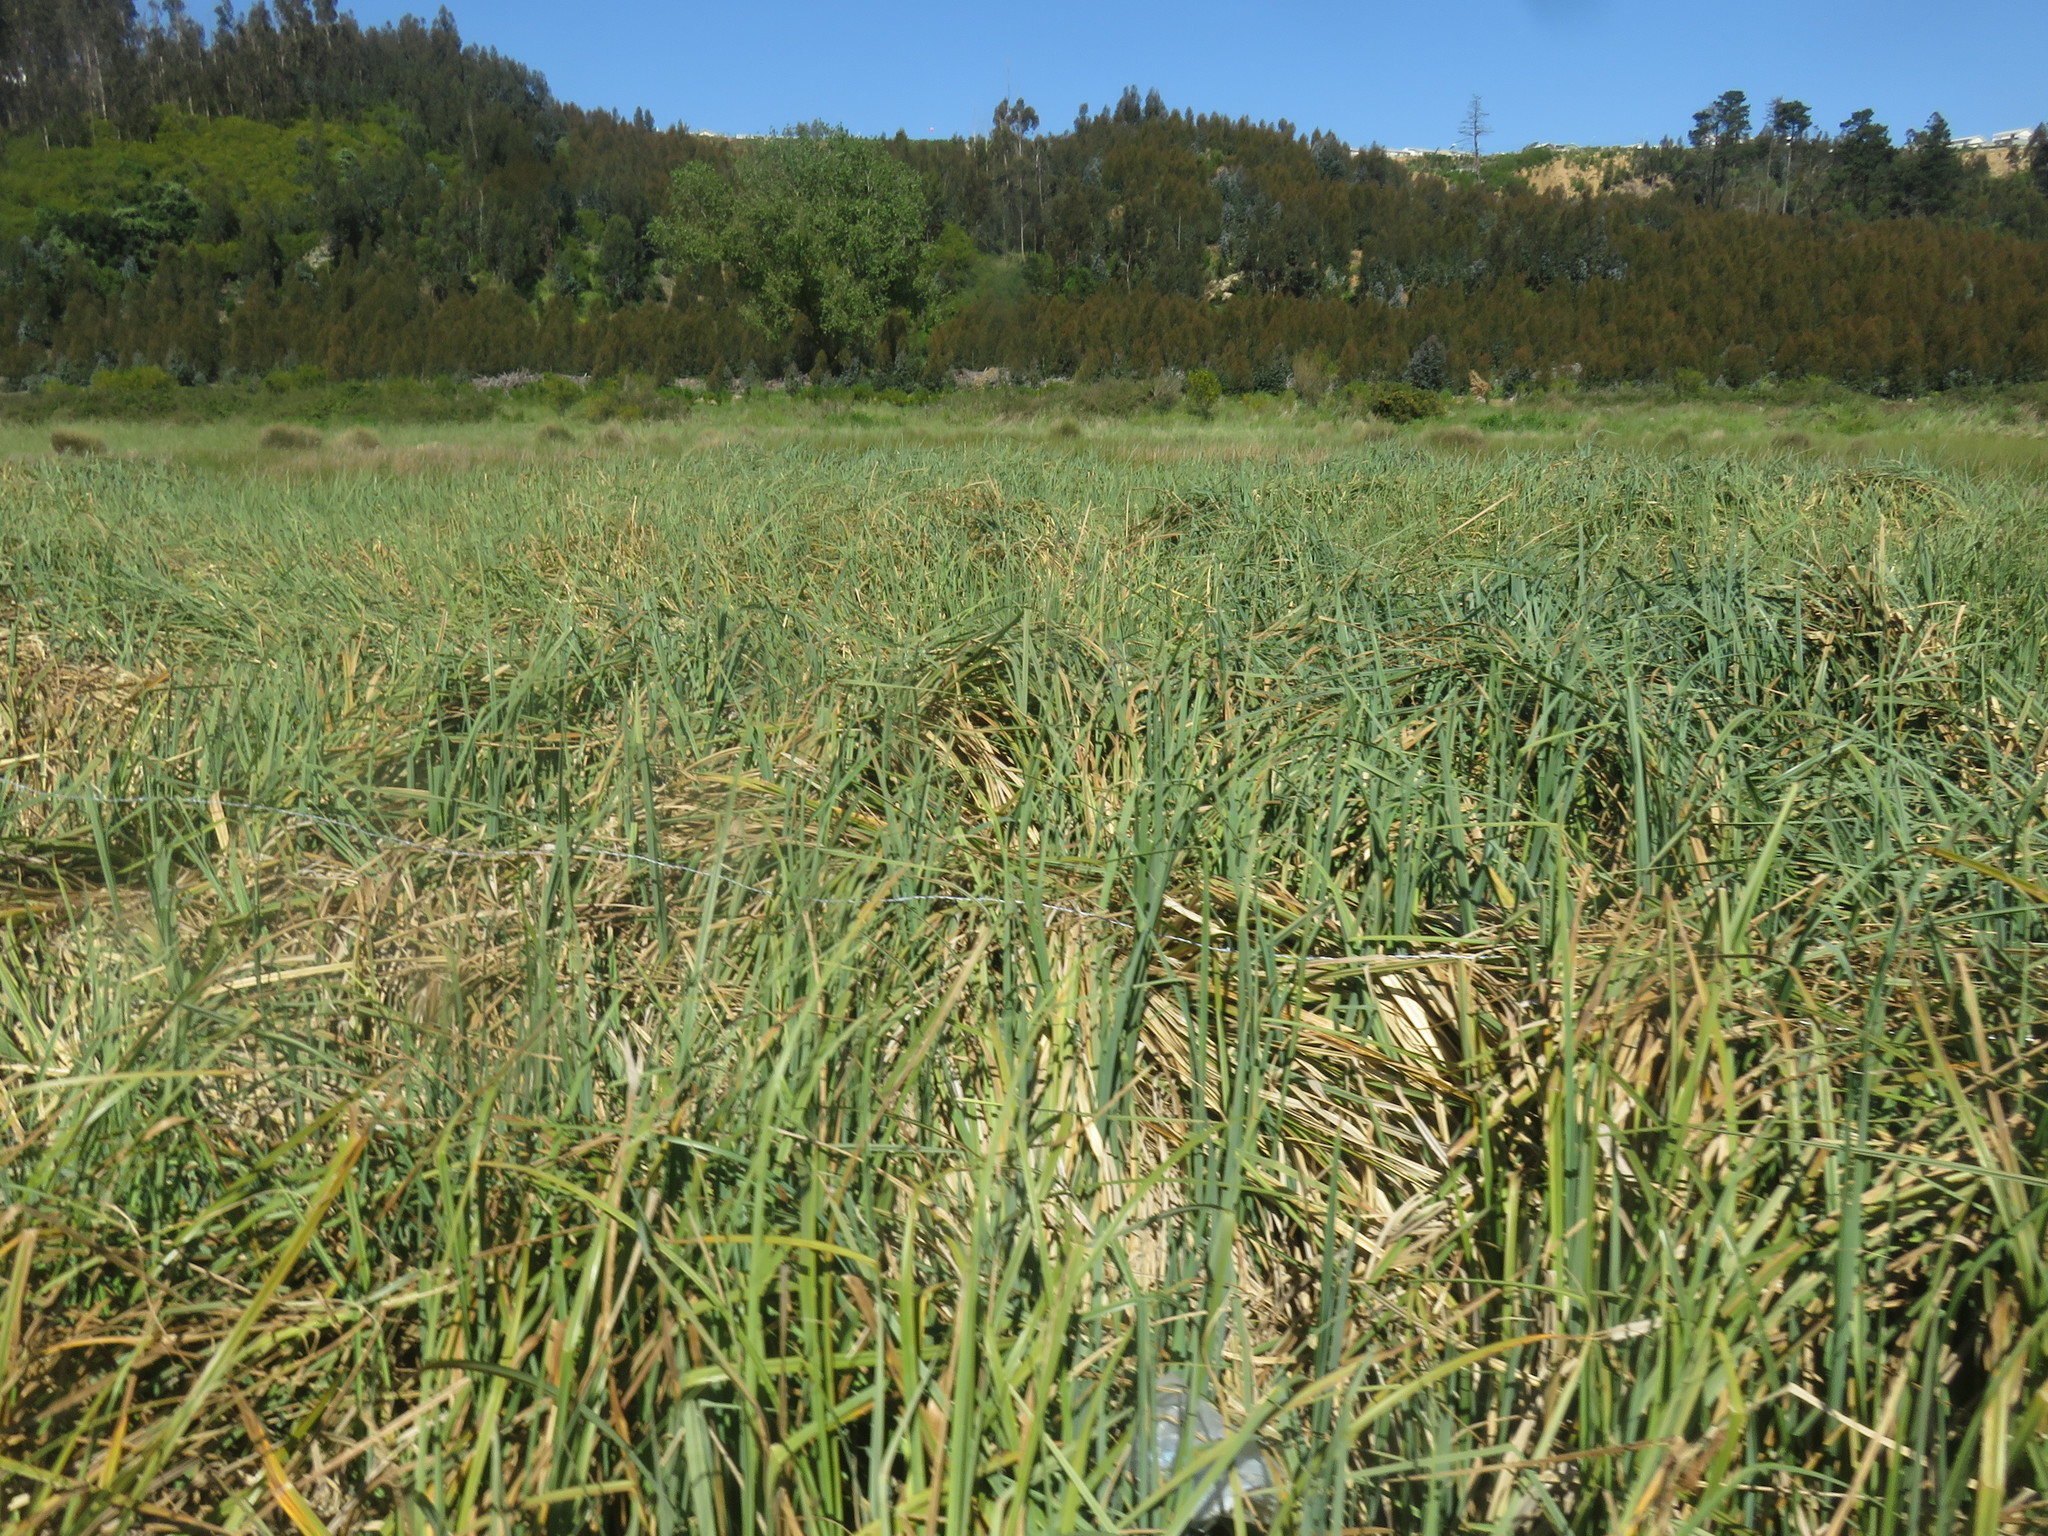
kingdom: Plantae
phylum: Tracheophyta
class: Liliopsida
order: Poales
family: Cyperaceae
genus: Carex
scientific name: Carex chilensis
